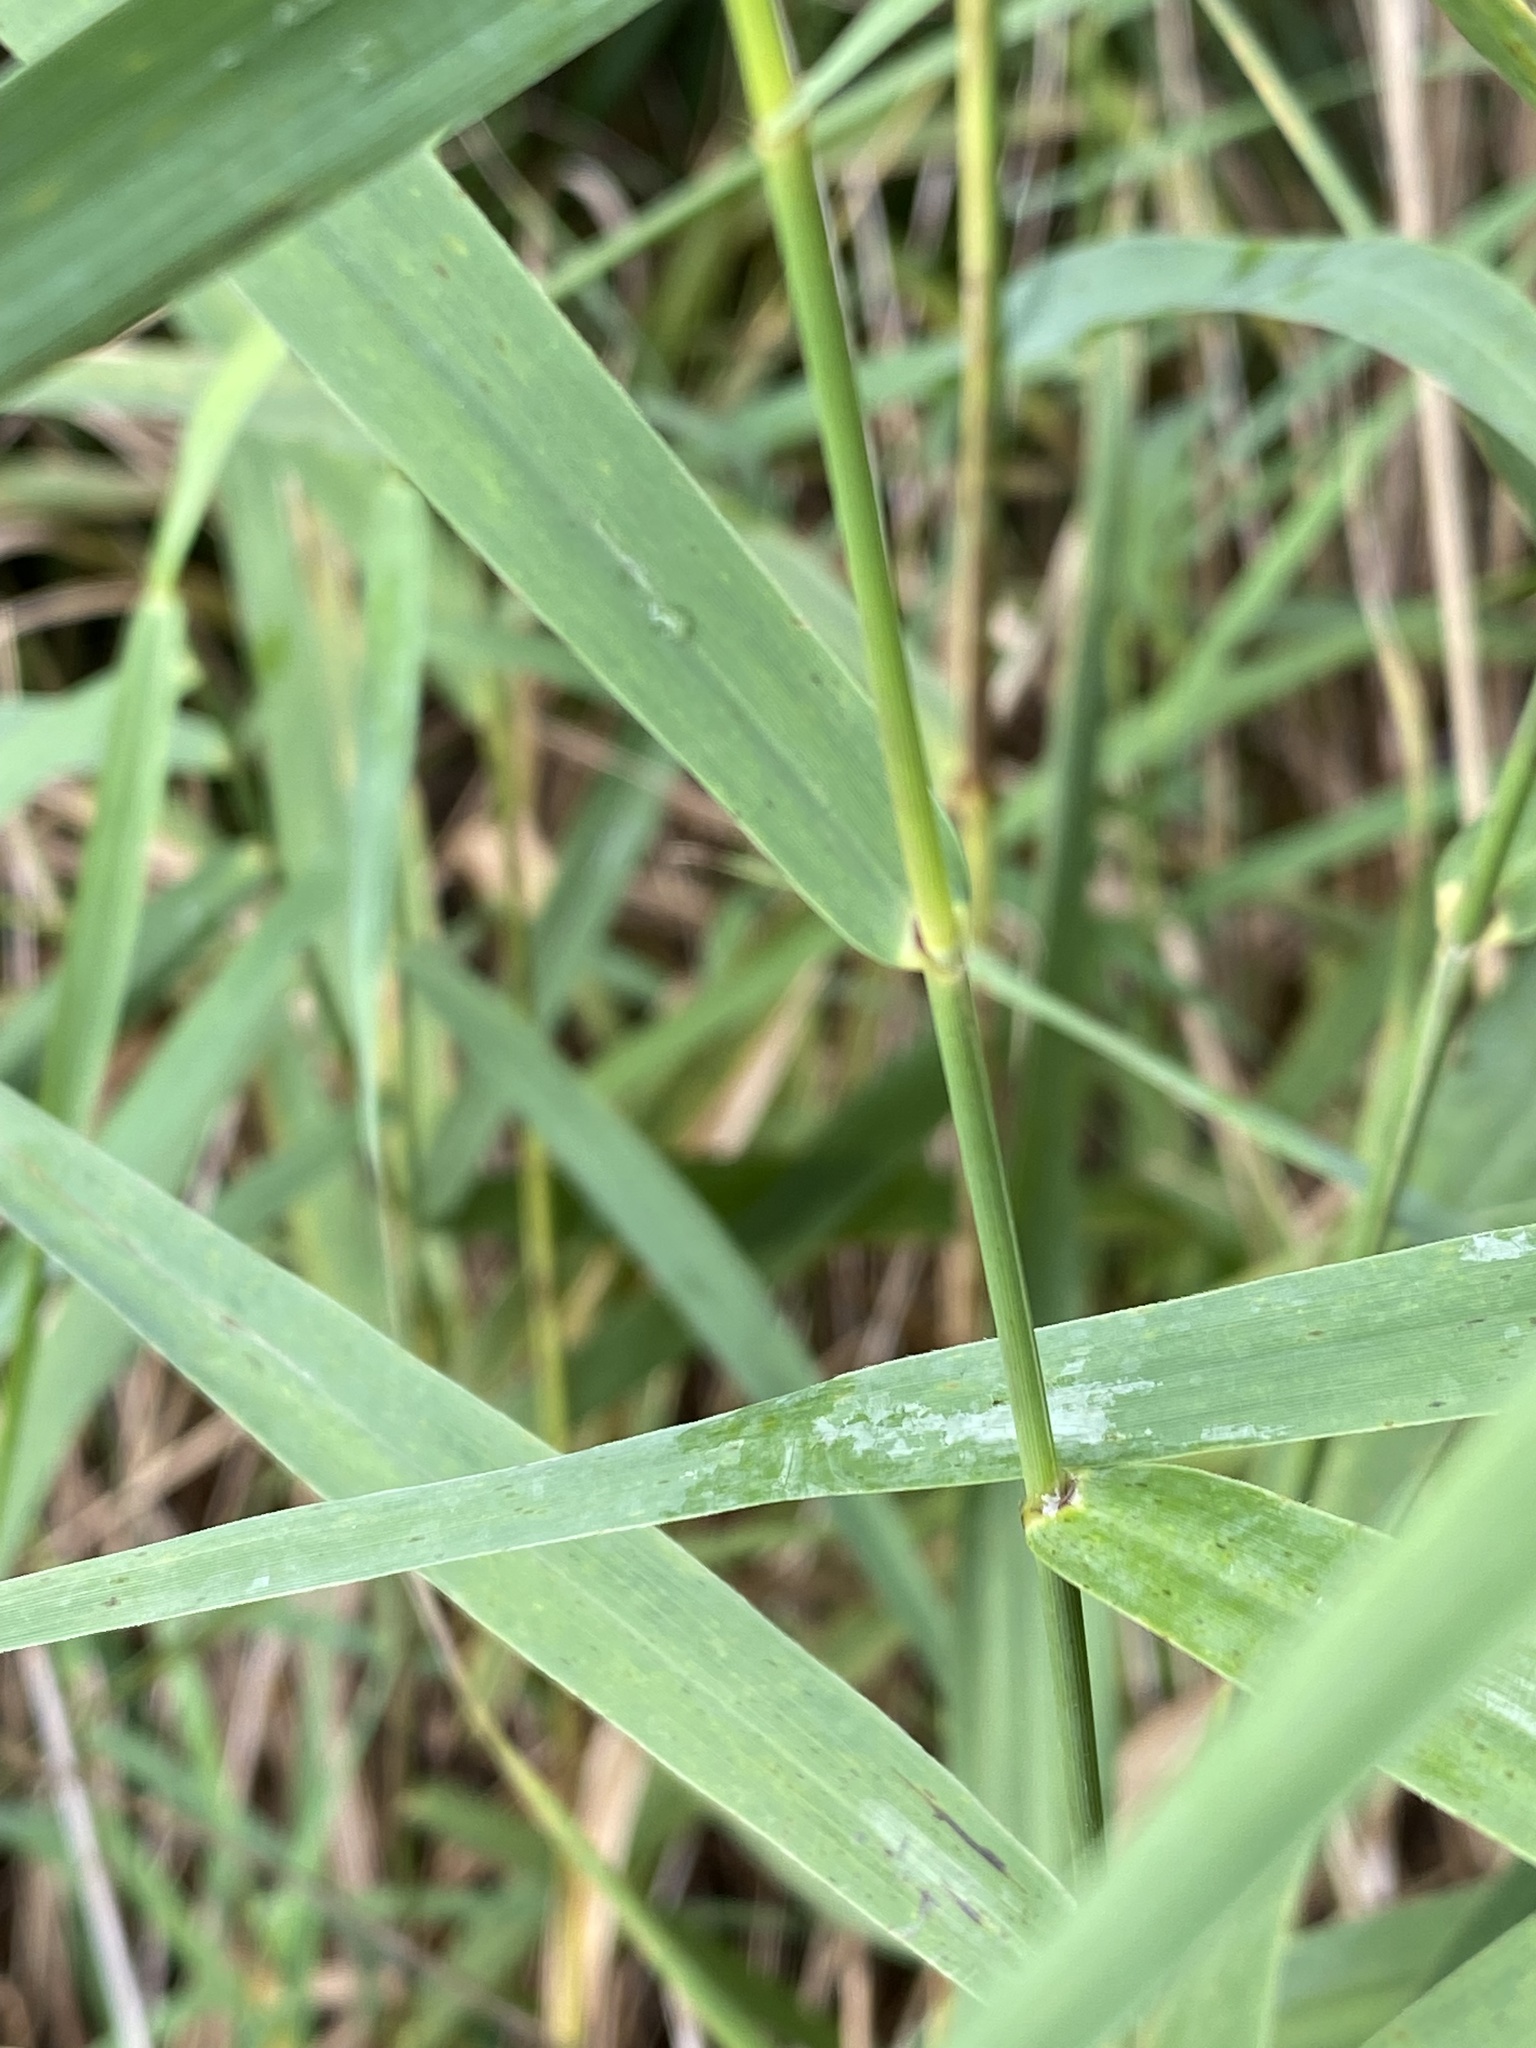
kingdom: Plantae
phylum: Tracheophyta
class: Liliopsida
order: Poales
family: Poaceae
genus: Phragmites
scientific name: Phragmites australis
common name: Common reed
